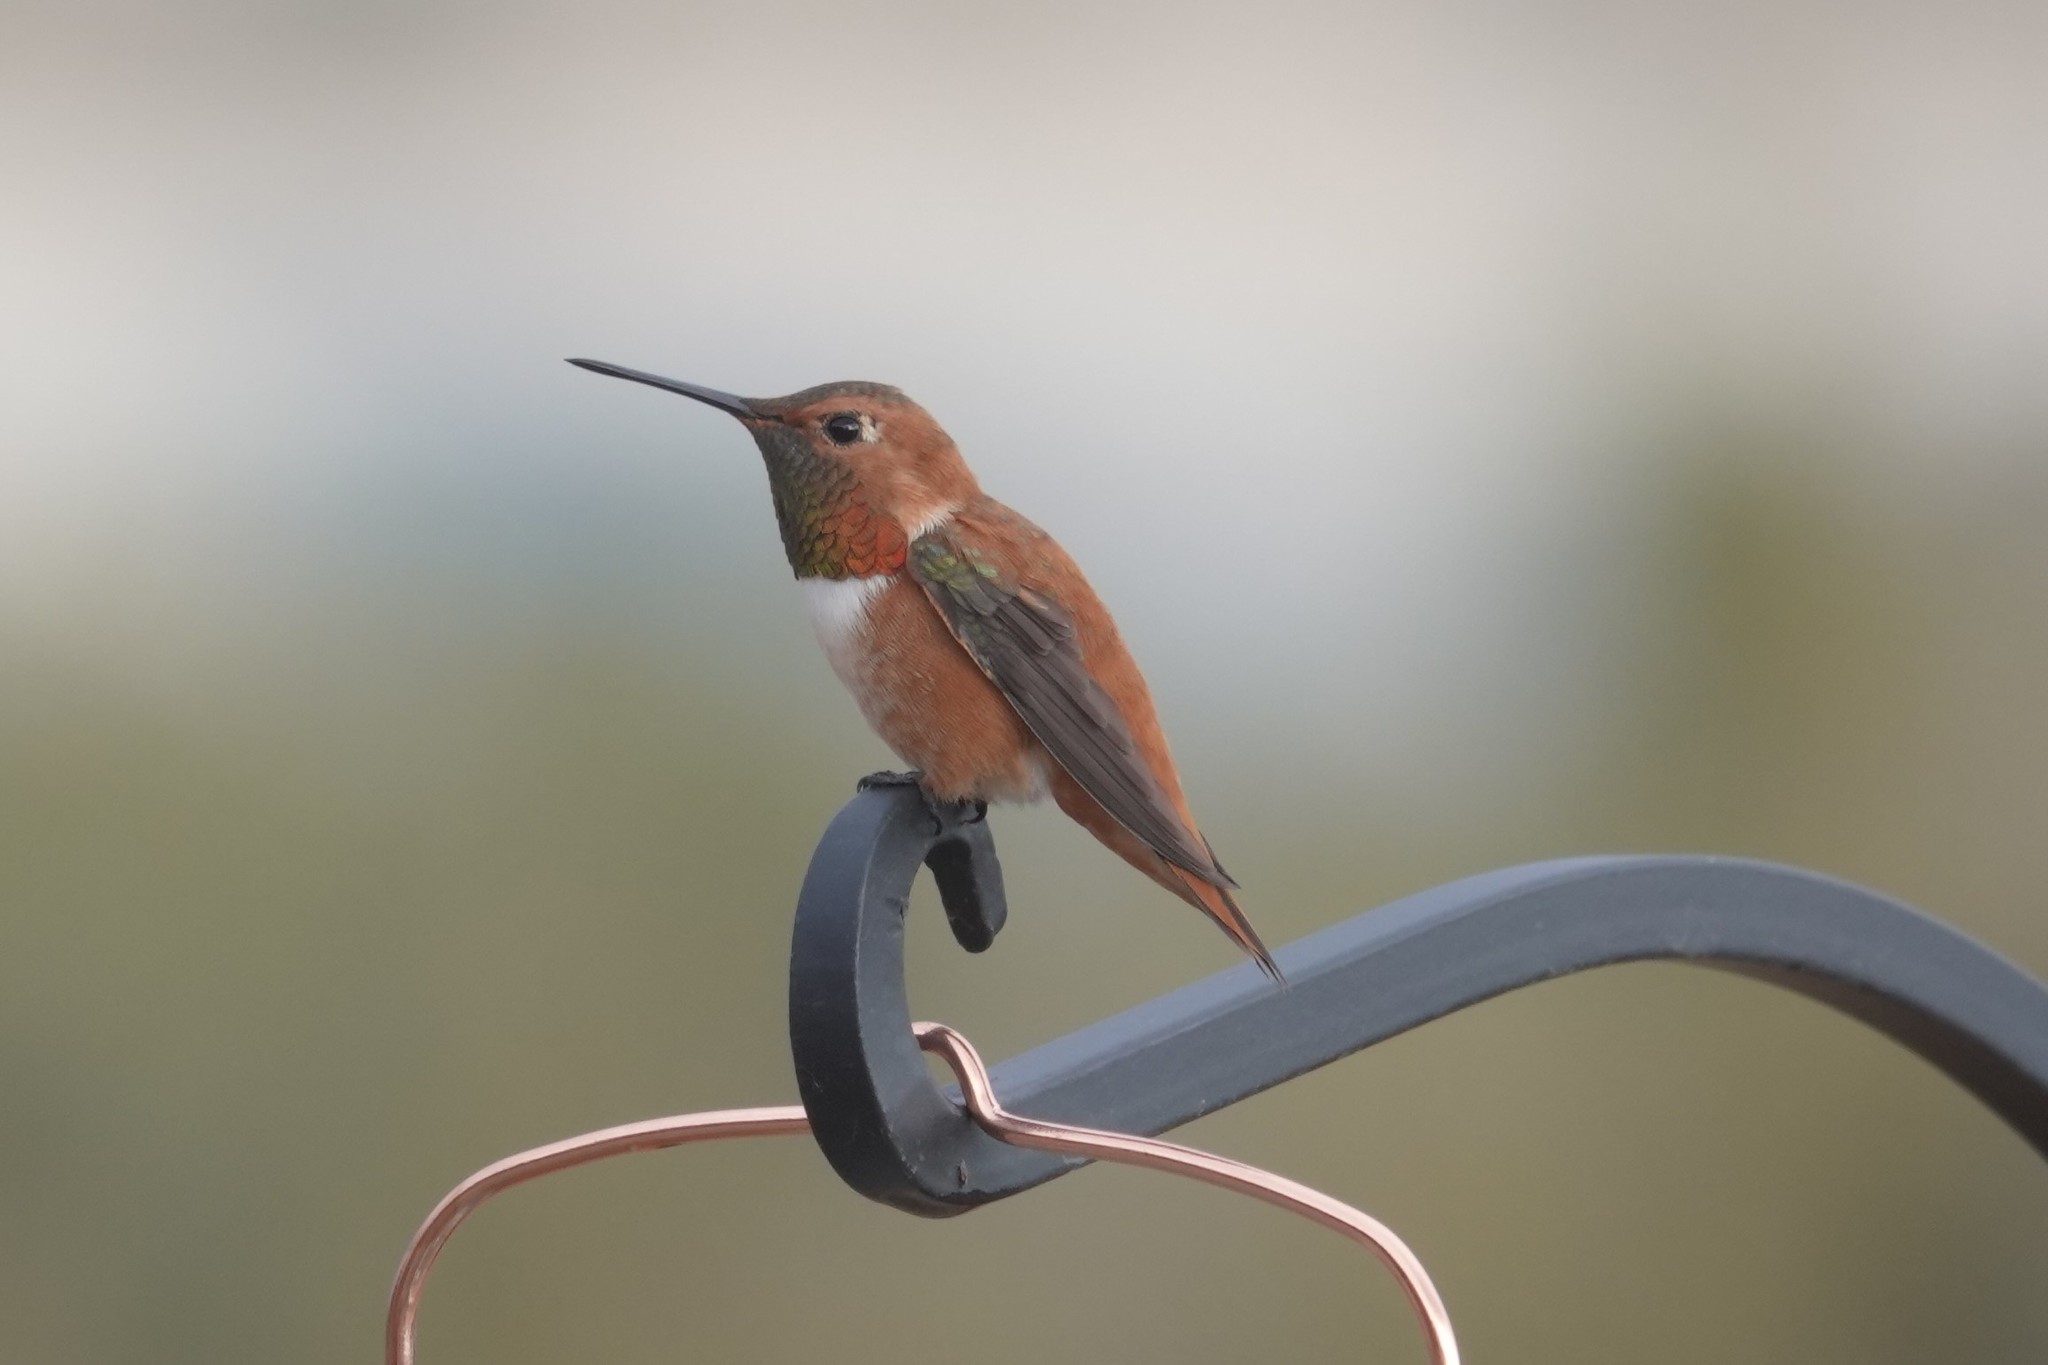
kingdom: Animalia
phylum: Chordata
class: Aves
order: Apodiformes
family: Trochilidae
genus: Selasphorus
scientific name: Selasphorus rufus
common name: Rufous hummingbird
